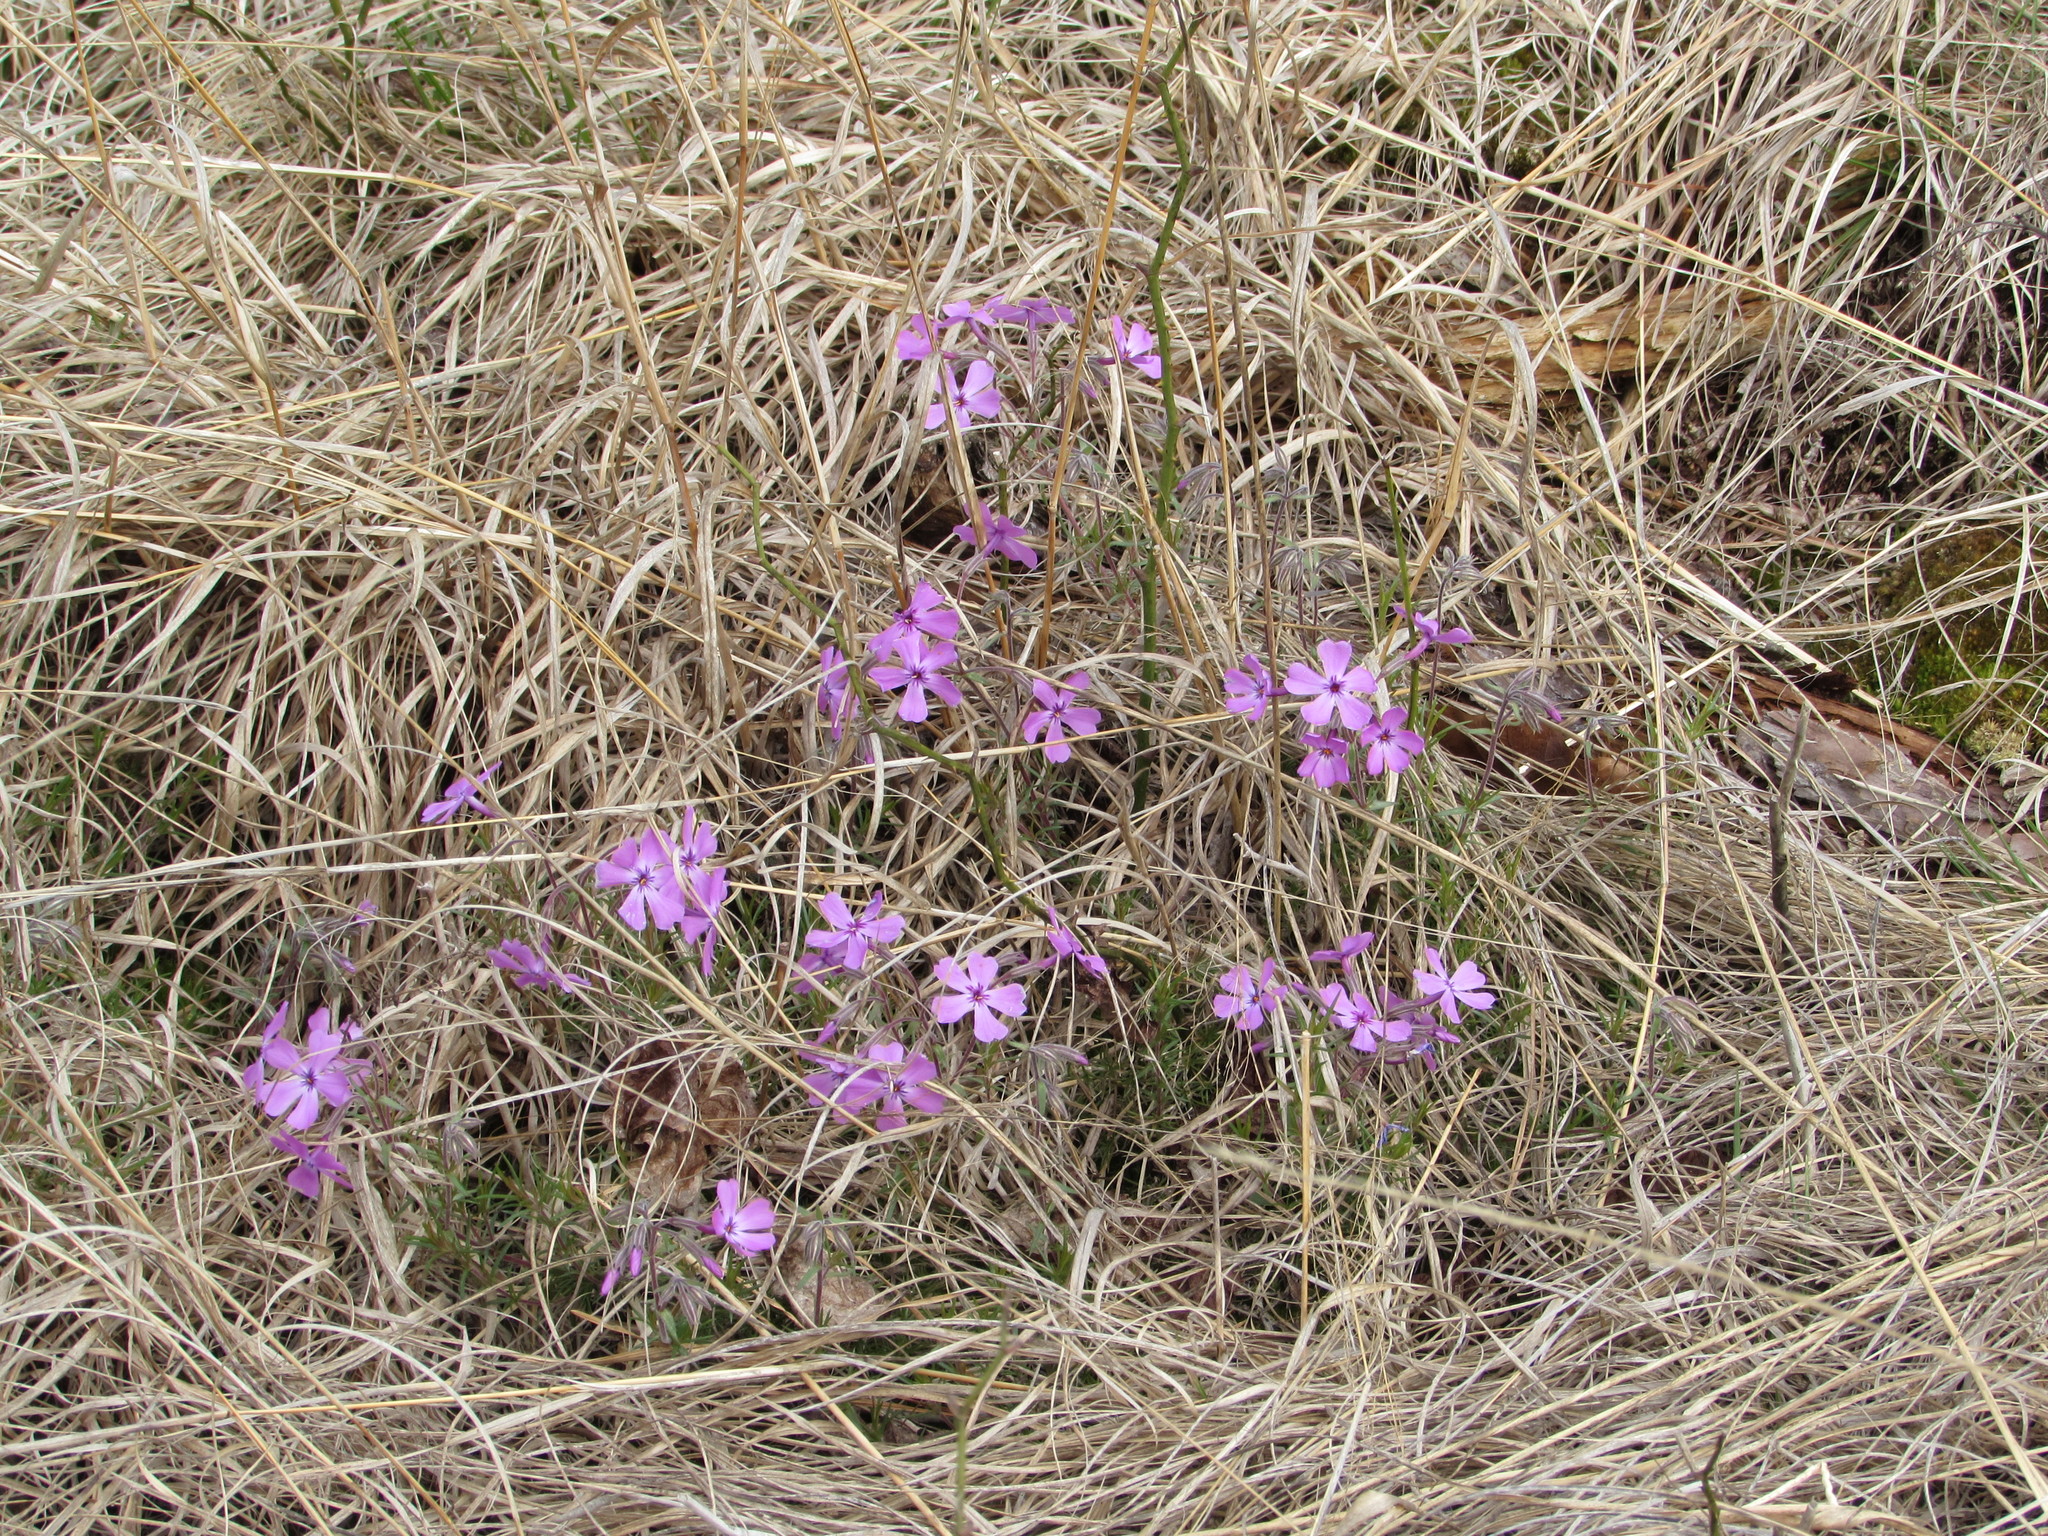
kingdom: Plantae
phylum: Tracheophyta
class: Magnoliopsida
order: Ericales
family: Polemoniaceae
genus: Phlox
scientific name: Phlox subulata
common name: Moss phlox
